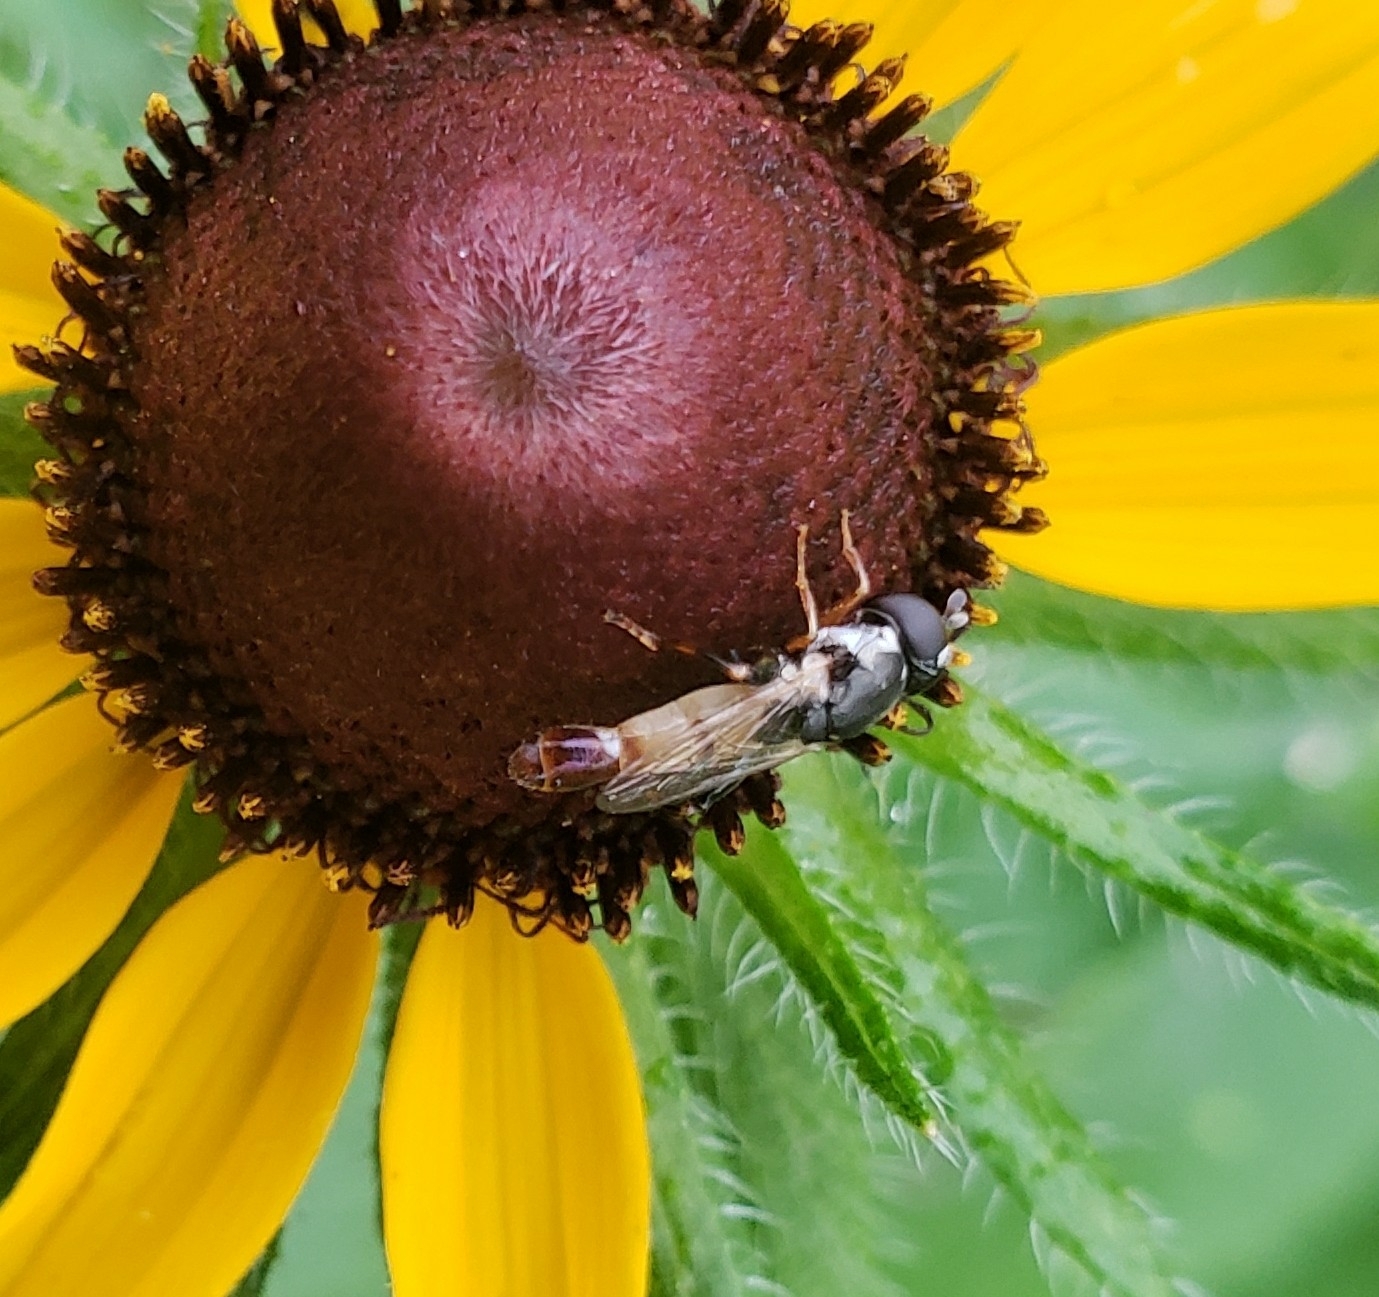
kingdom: Animalia
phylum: Arthropoda
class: Insecta
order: Diptera
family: Syrphidae
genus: Syritta
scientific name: Syritta flaviventris
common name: Syrphid fly
